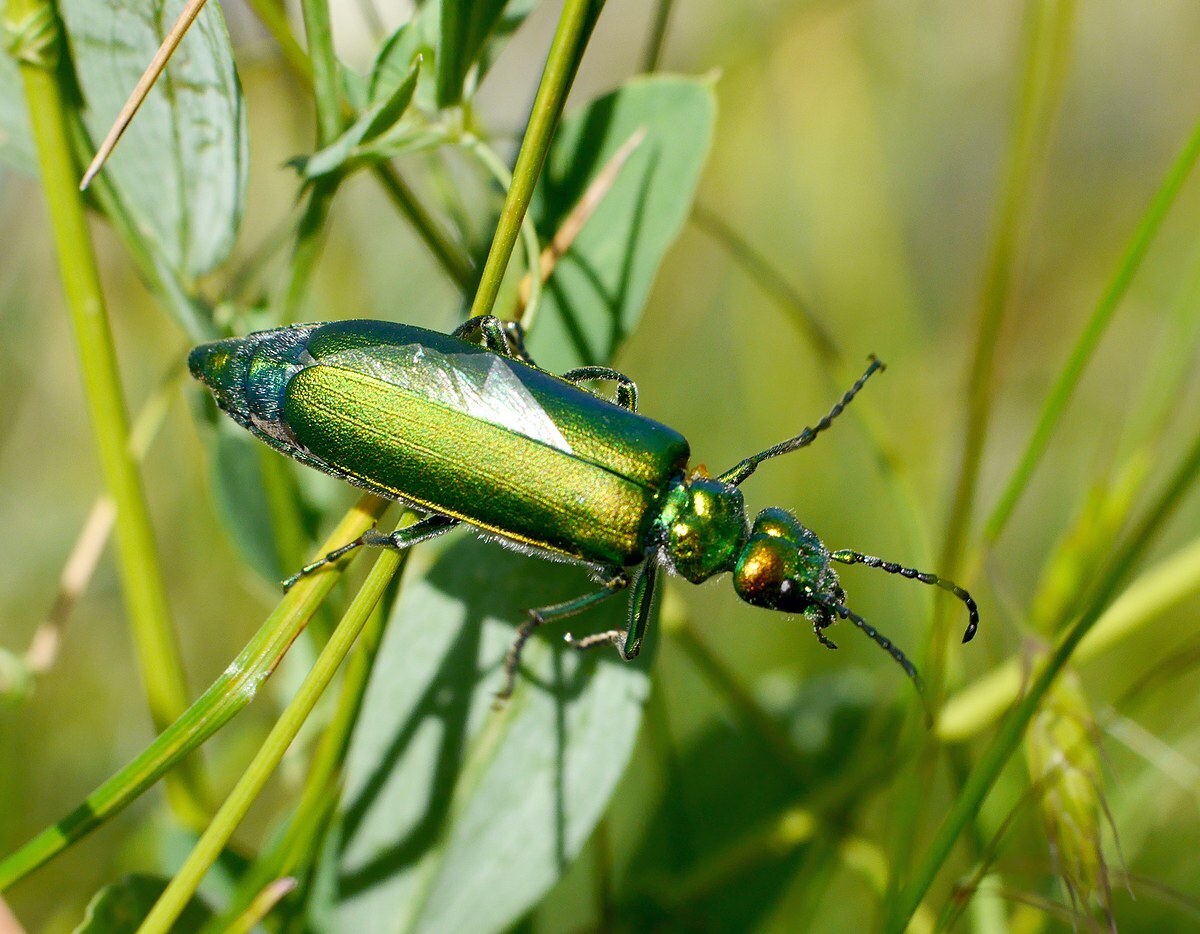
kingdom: Animalia
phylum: Arthropoda
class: Insecta
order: Coleoptera
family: Meloidae
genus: Lytta
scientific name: Lytta vesicatoria
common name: Spanish fly
